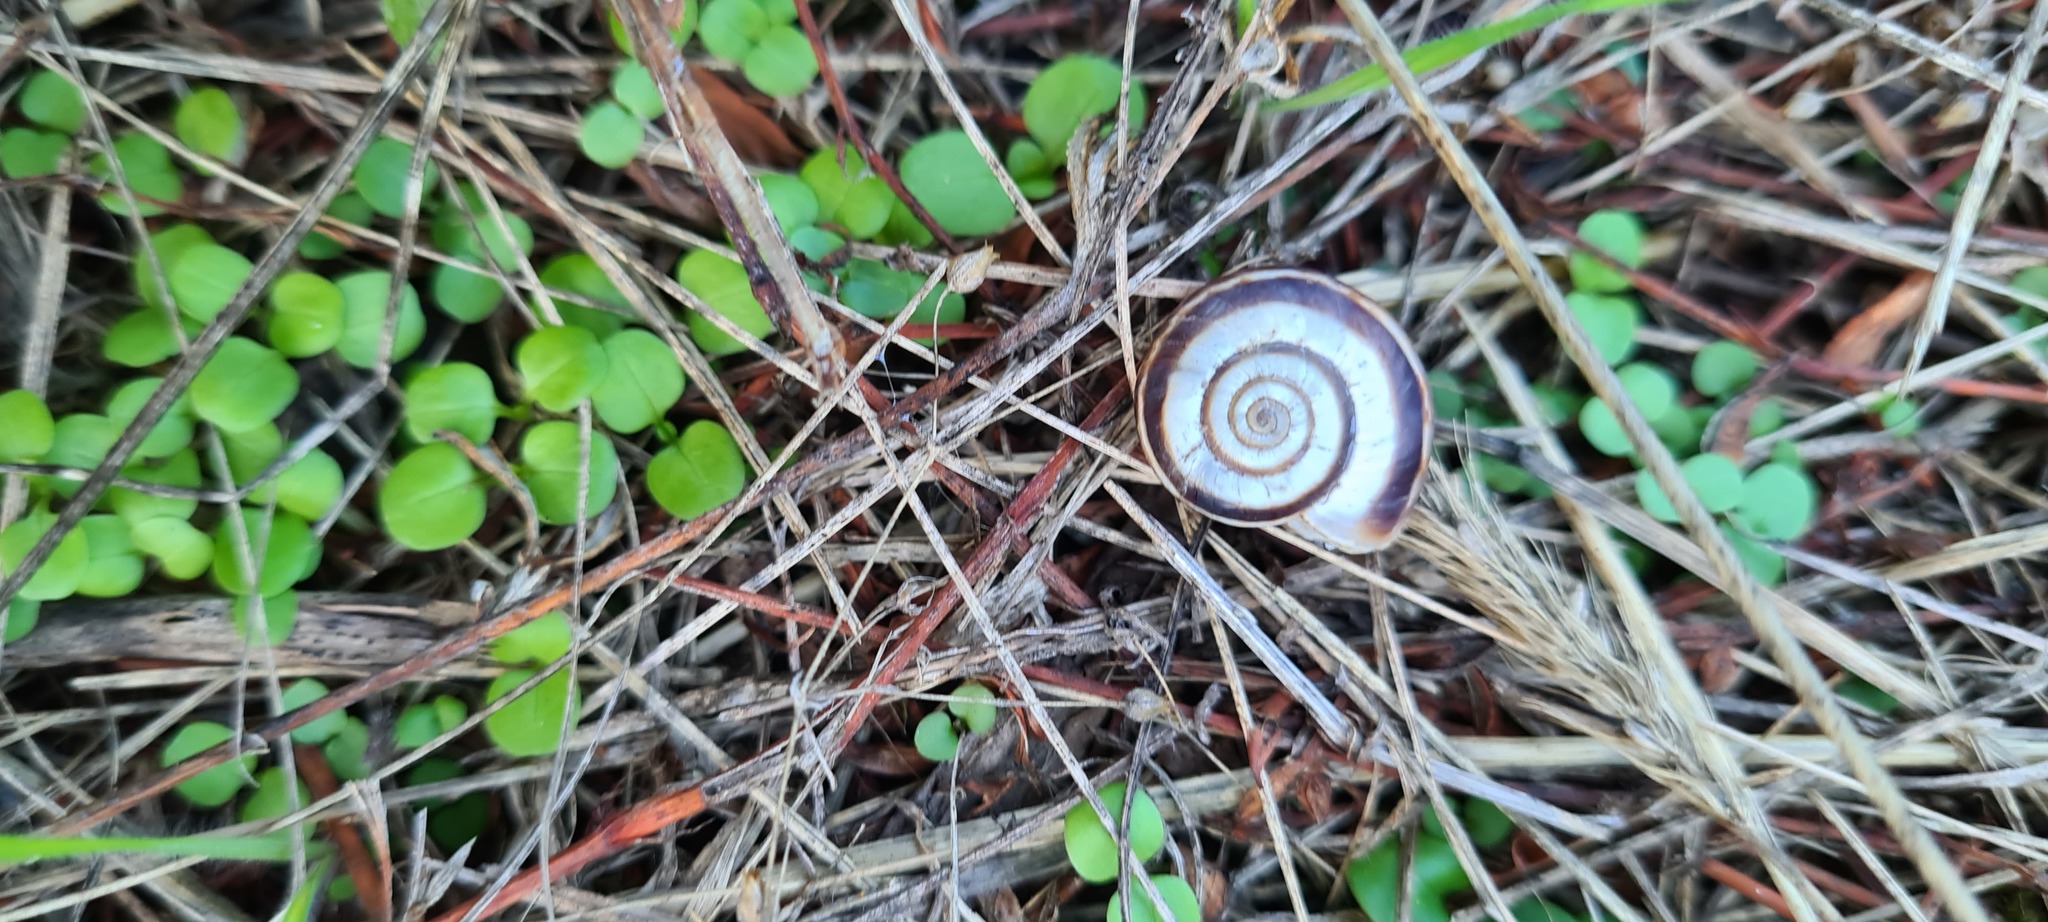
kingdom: Animalia
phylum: Mollusca
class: Gastropoda
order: Stylommatophora
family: Geomitridae
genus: Xerolenta
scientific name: Xerolenta obvia
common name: White heath snail
